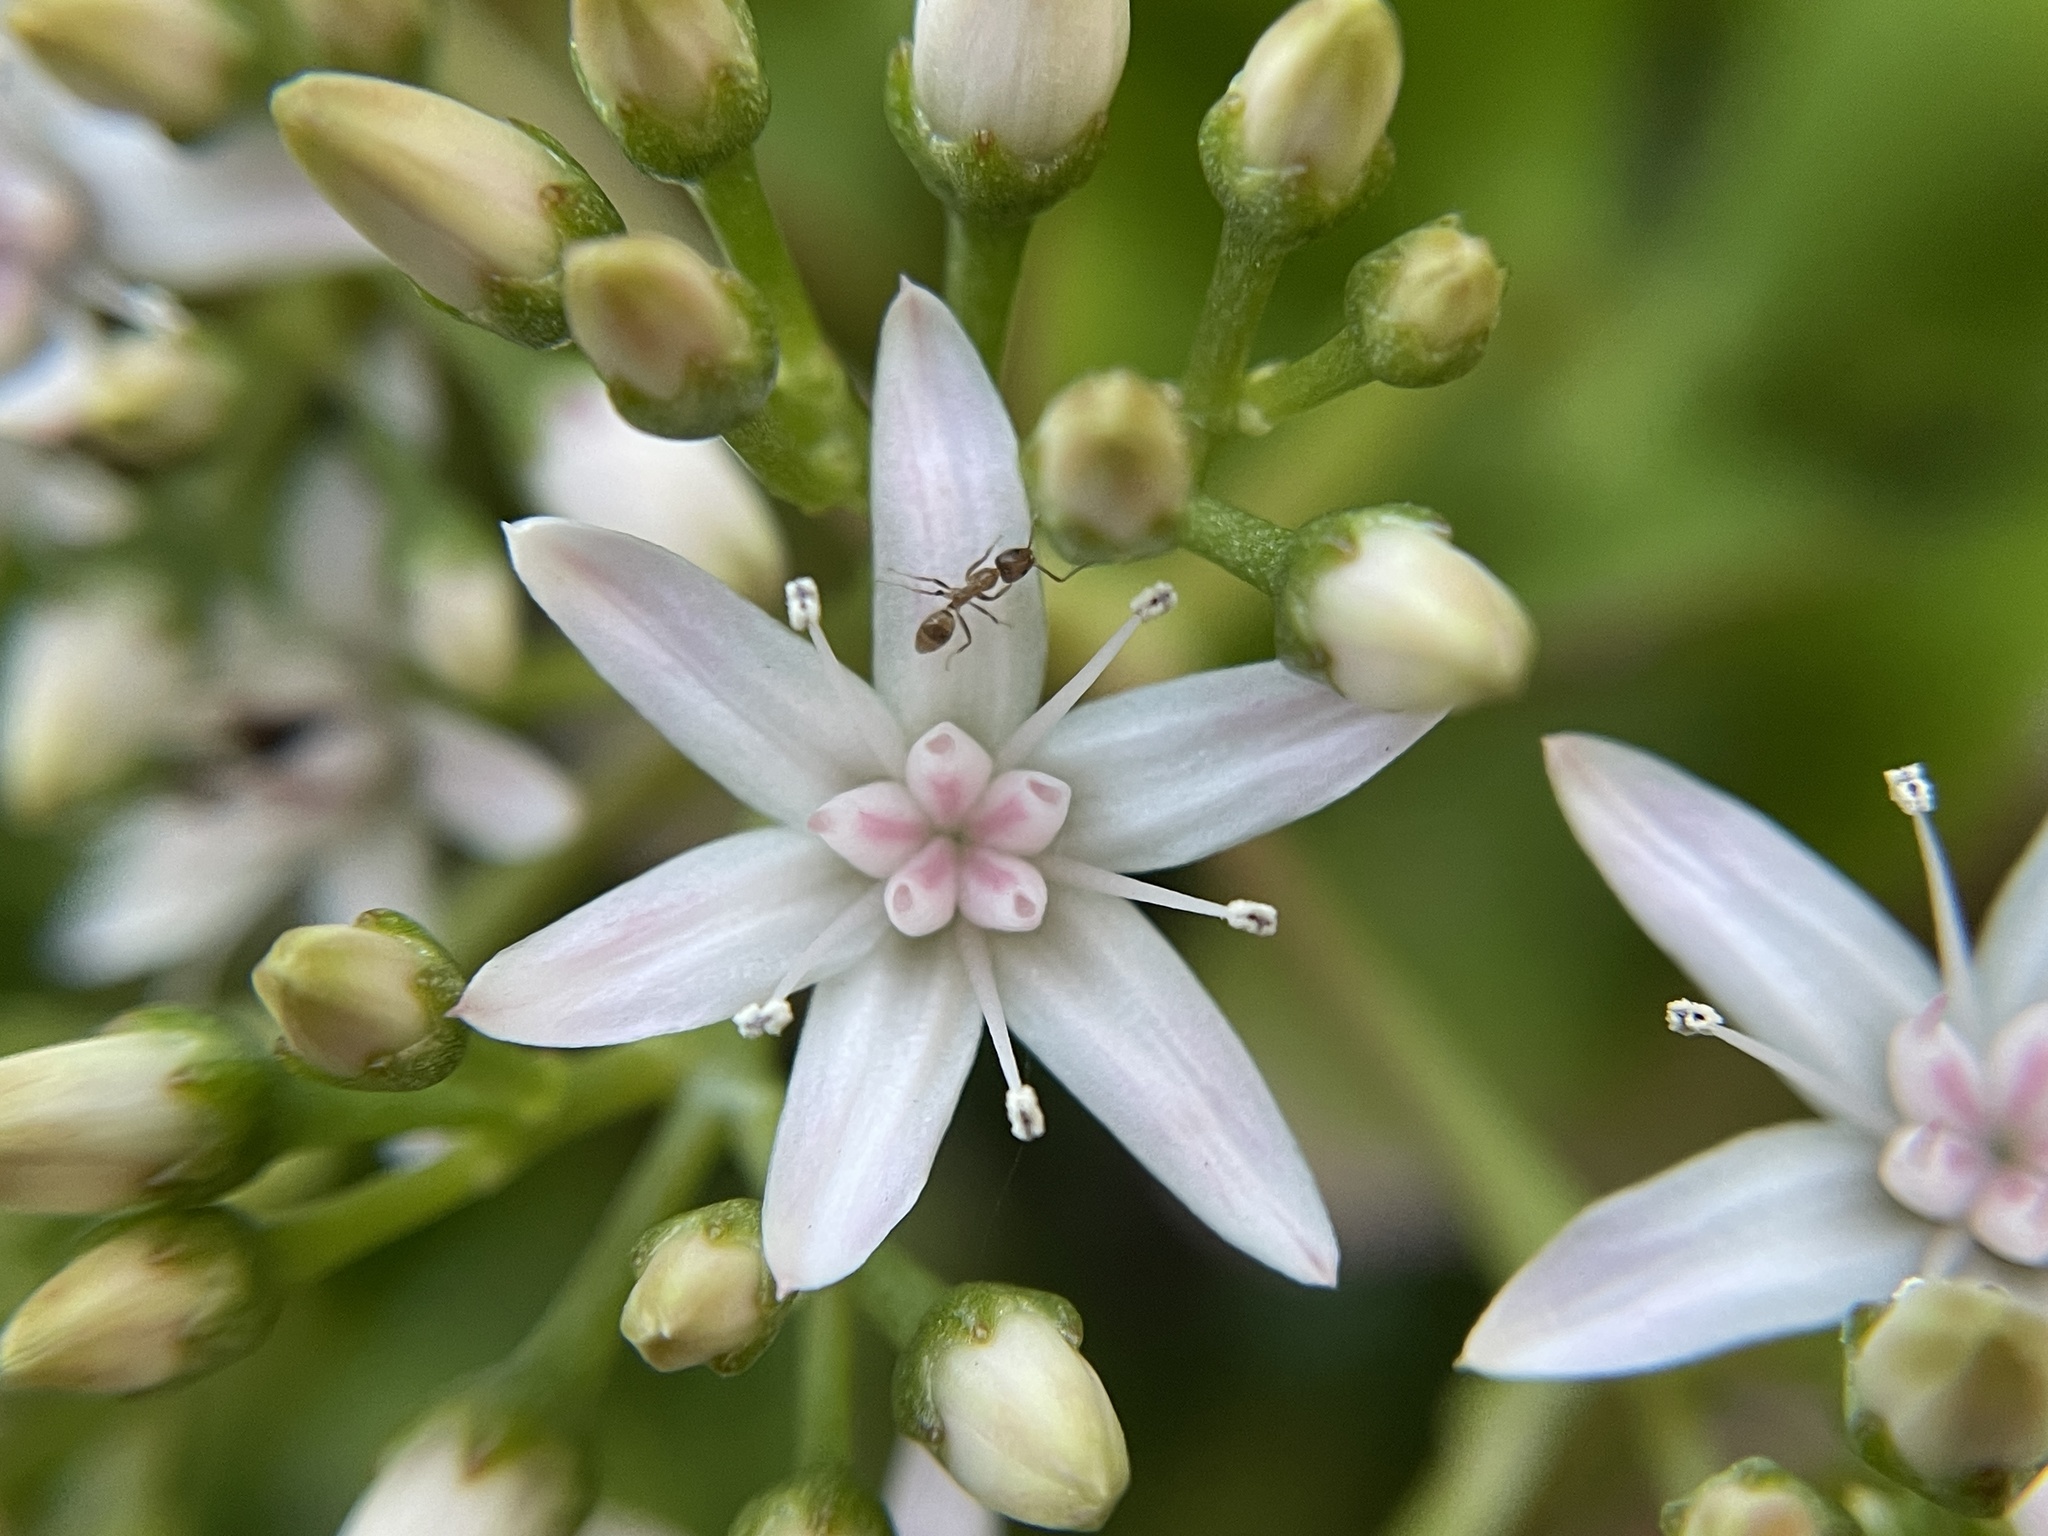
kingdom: Animalia
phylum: Arthropoda
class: Insecta
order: Hymenoptera
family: Formicidae
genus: Linepithema
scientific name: Linepithema humile
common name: Argentine ant
